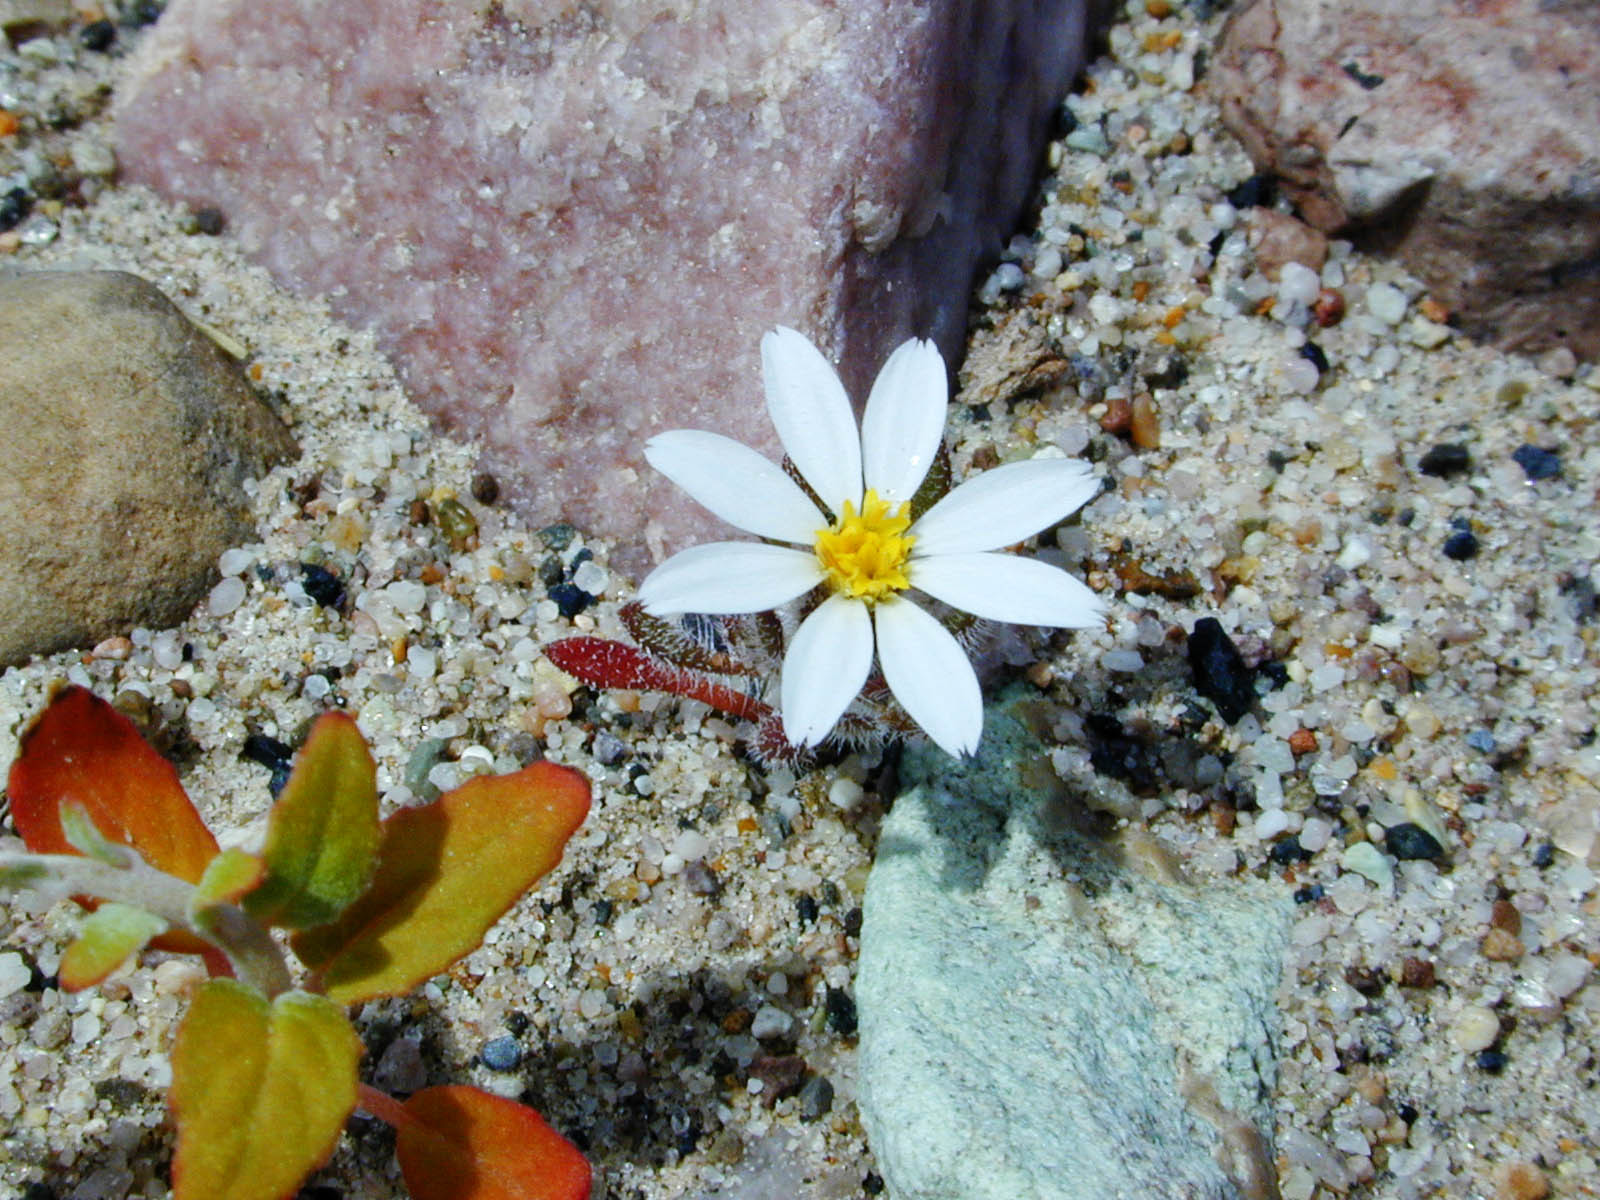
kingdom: Plantae
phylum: Tracheophyta
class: Magnoliopsida
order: Asterales
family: Asteraceae
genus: Monoptilon
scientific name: Monoptilon bellioides
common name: Bristly desertstar
